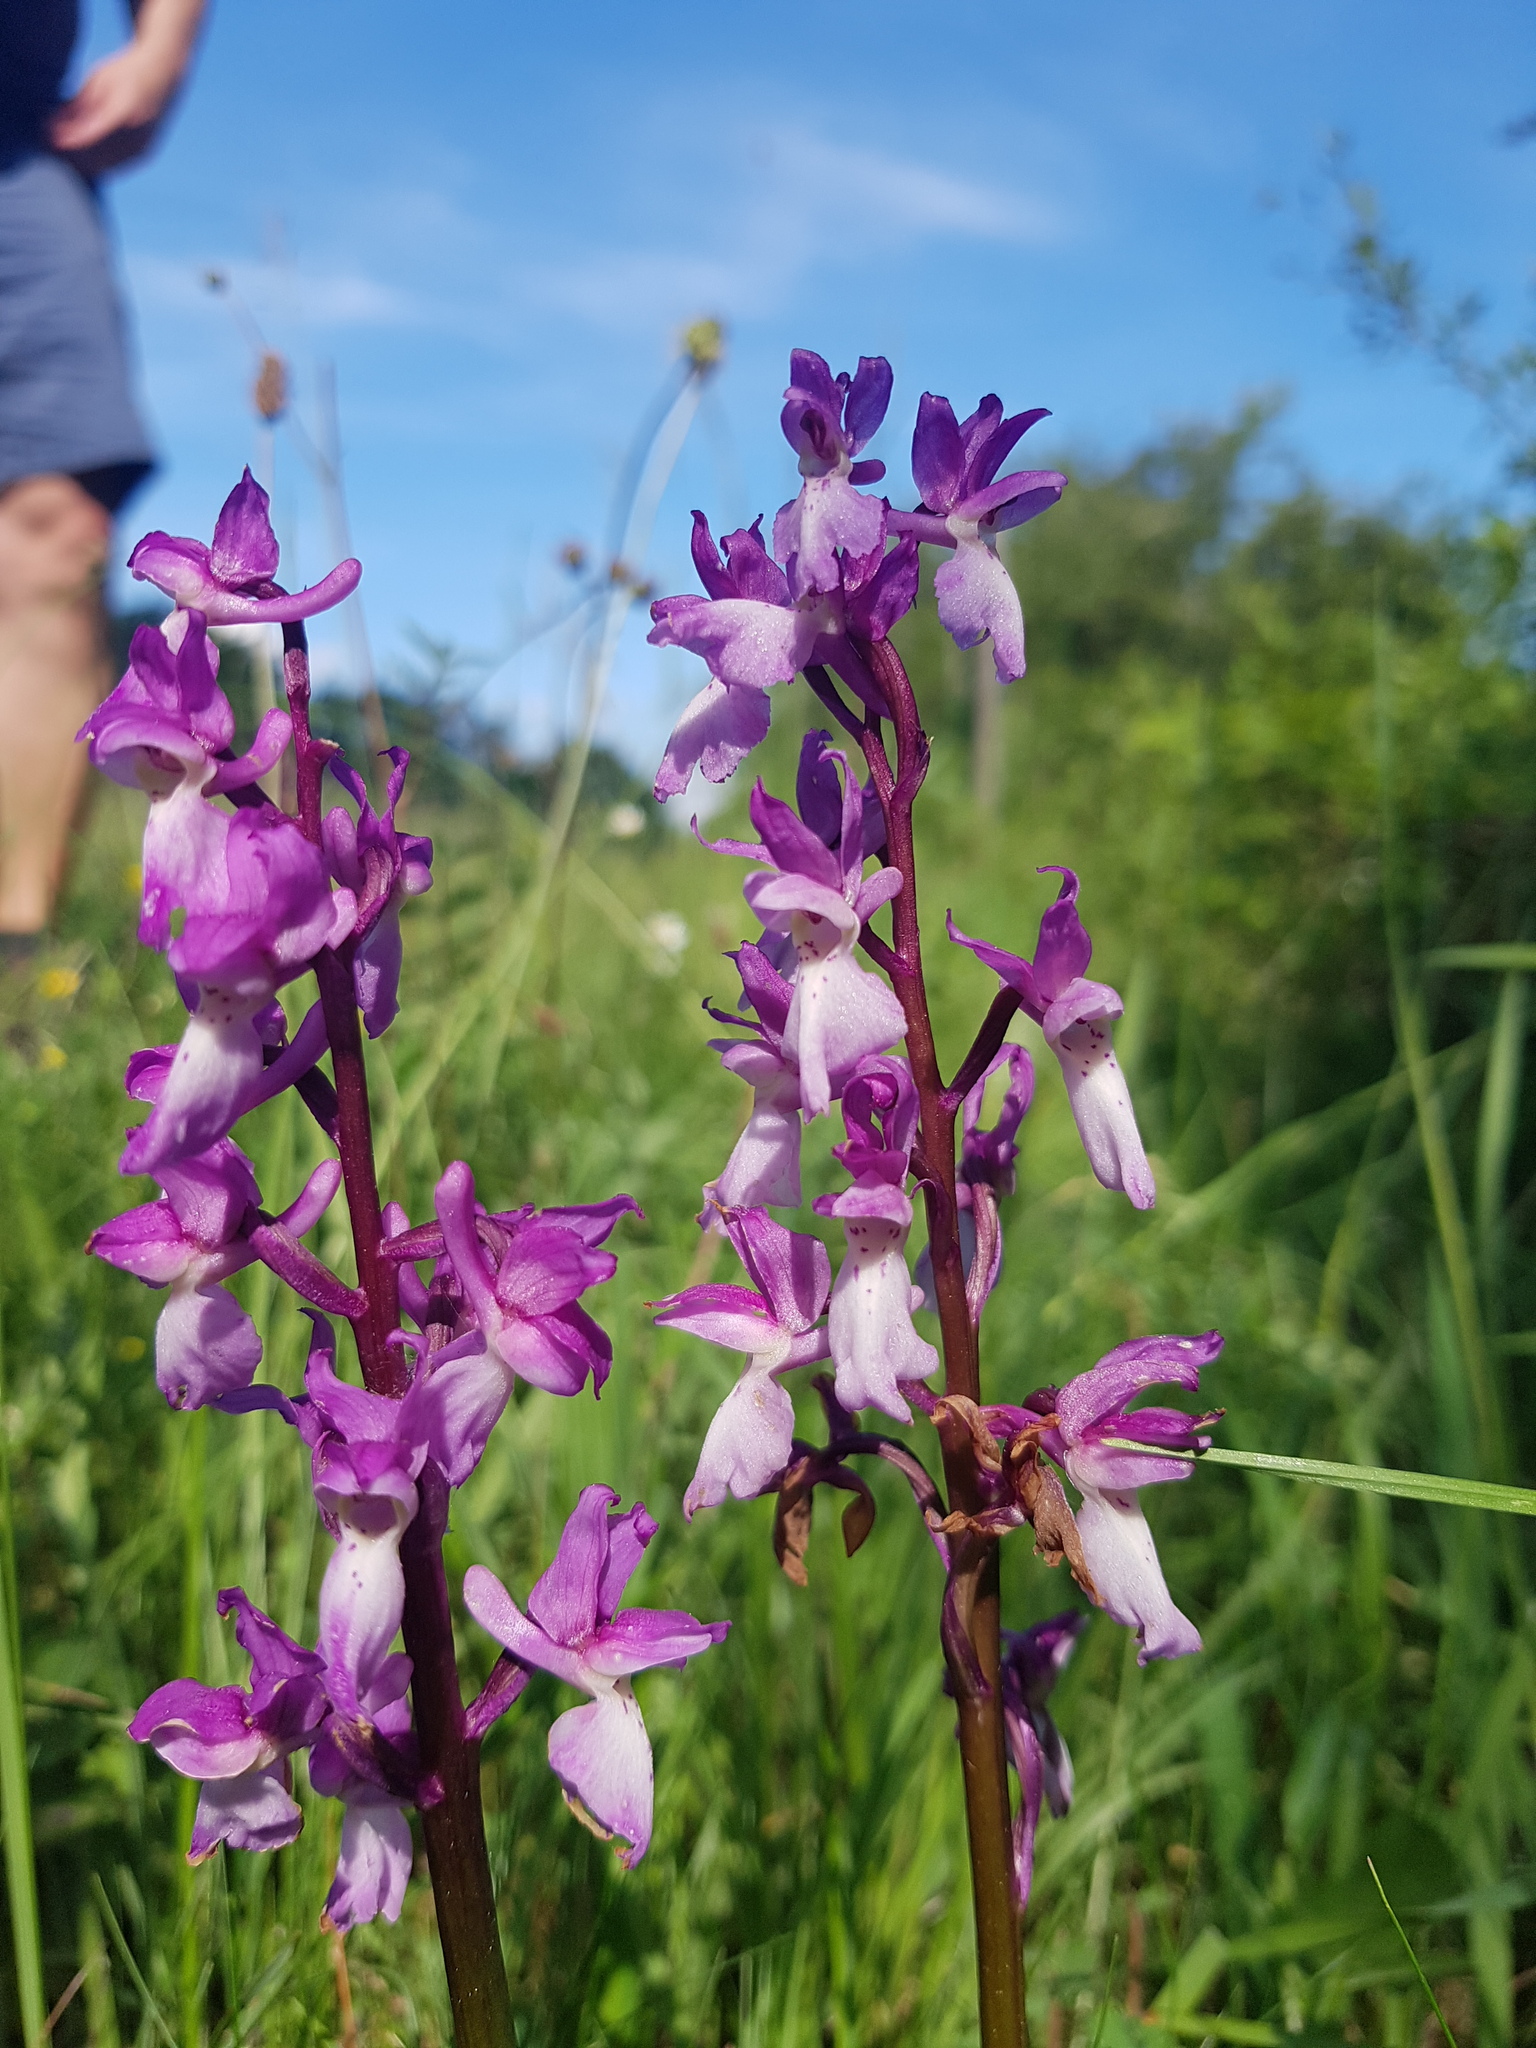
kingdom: Plantae
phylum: Tracheophyta
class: Liliopsida
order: Asparagales
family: Orchidaceae
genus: Orchis
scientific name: Orchis mascula
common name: Early-purple orchid
